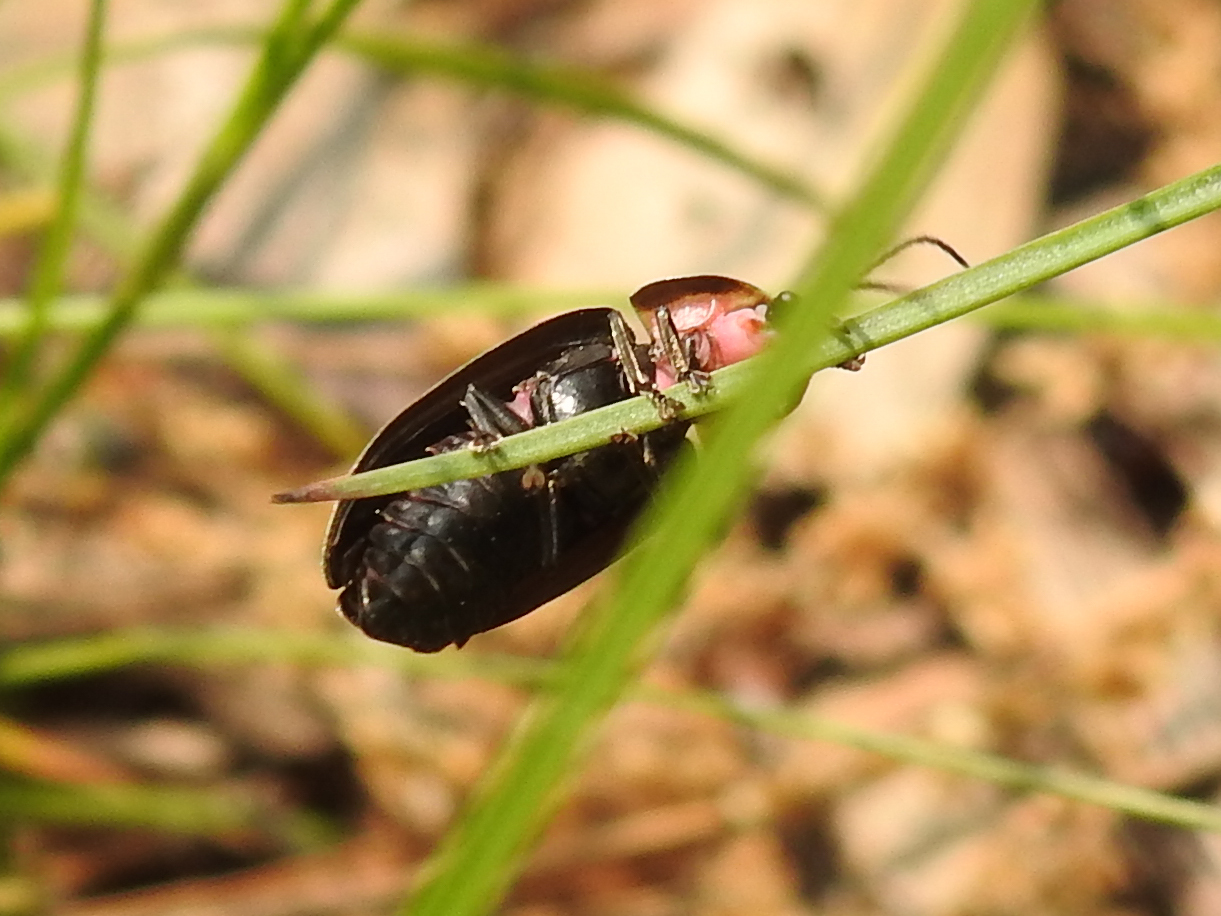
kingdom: Animalia
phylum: Arthropoda
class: Insecta
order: Coleoptera
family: Lampyridae
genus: Photinus
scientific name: Photinus corrusca
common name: Winter firefly
